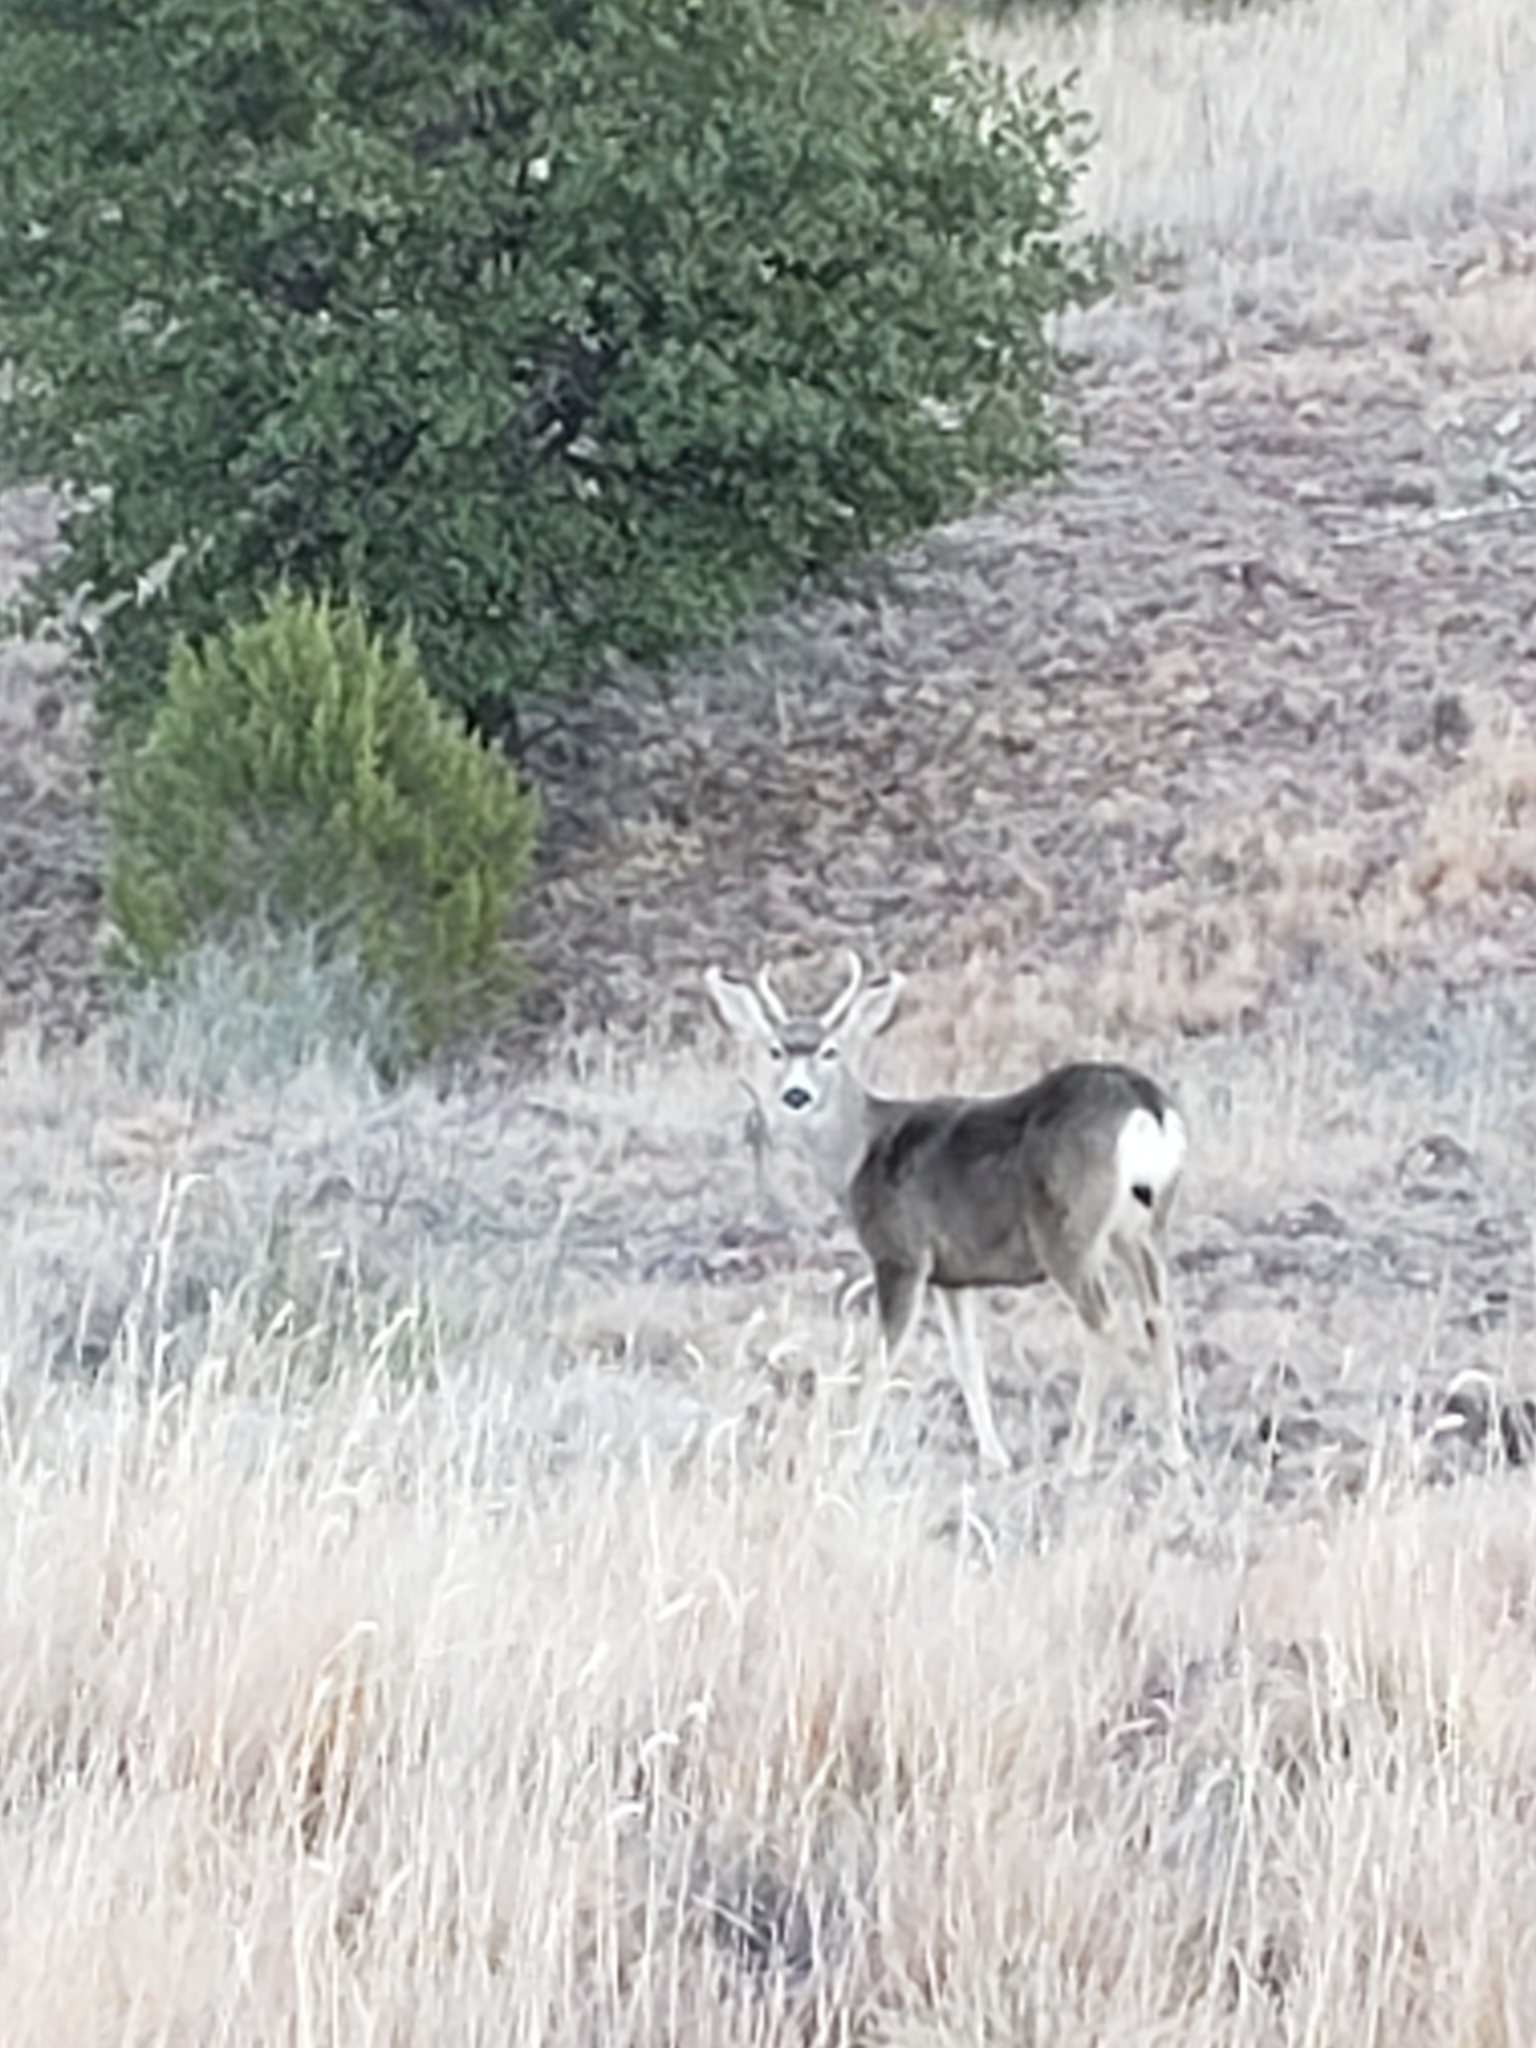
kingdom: Animalia
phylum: Chordata
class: Mammalia
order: Artiodactyla
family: Cervidae
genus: Odocoileus
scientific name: Odocoileus hemionus
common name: Mule deer
